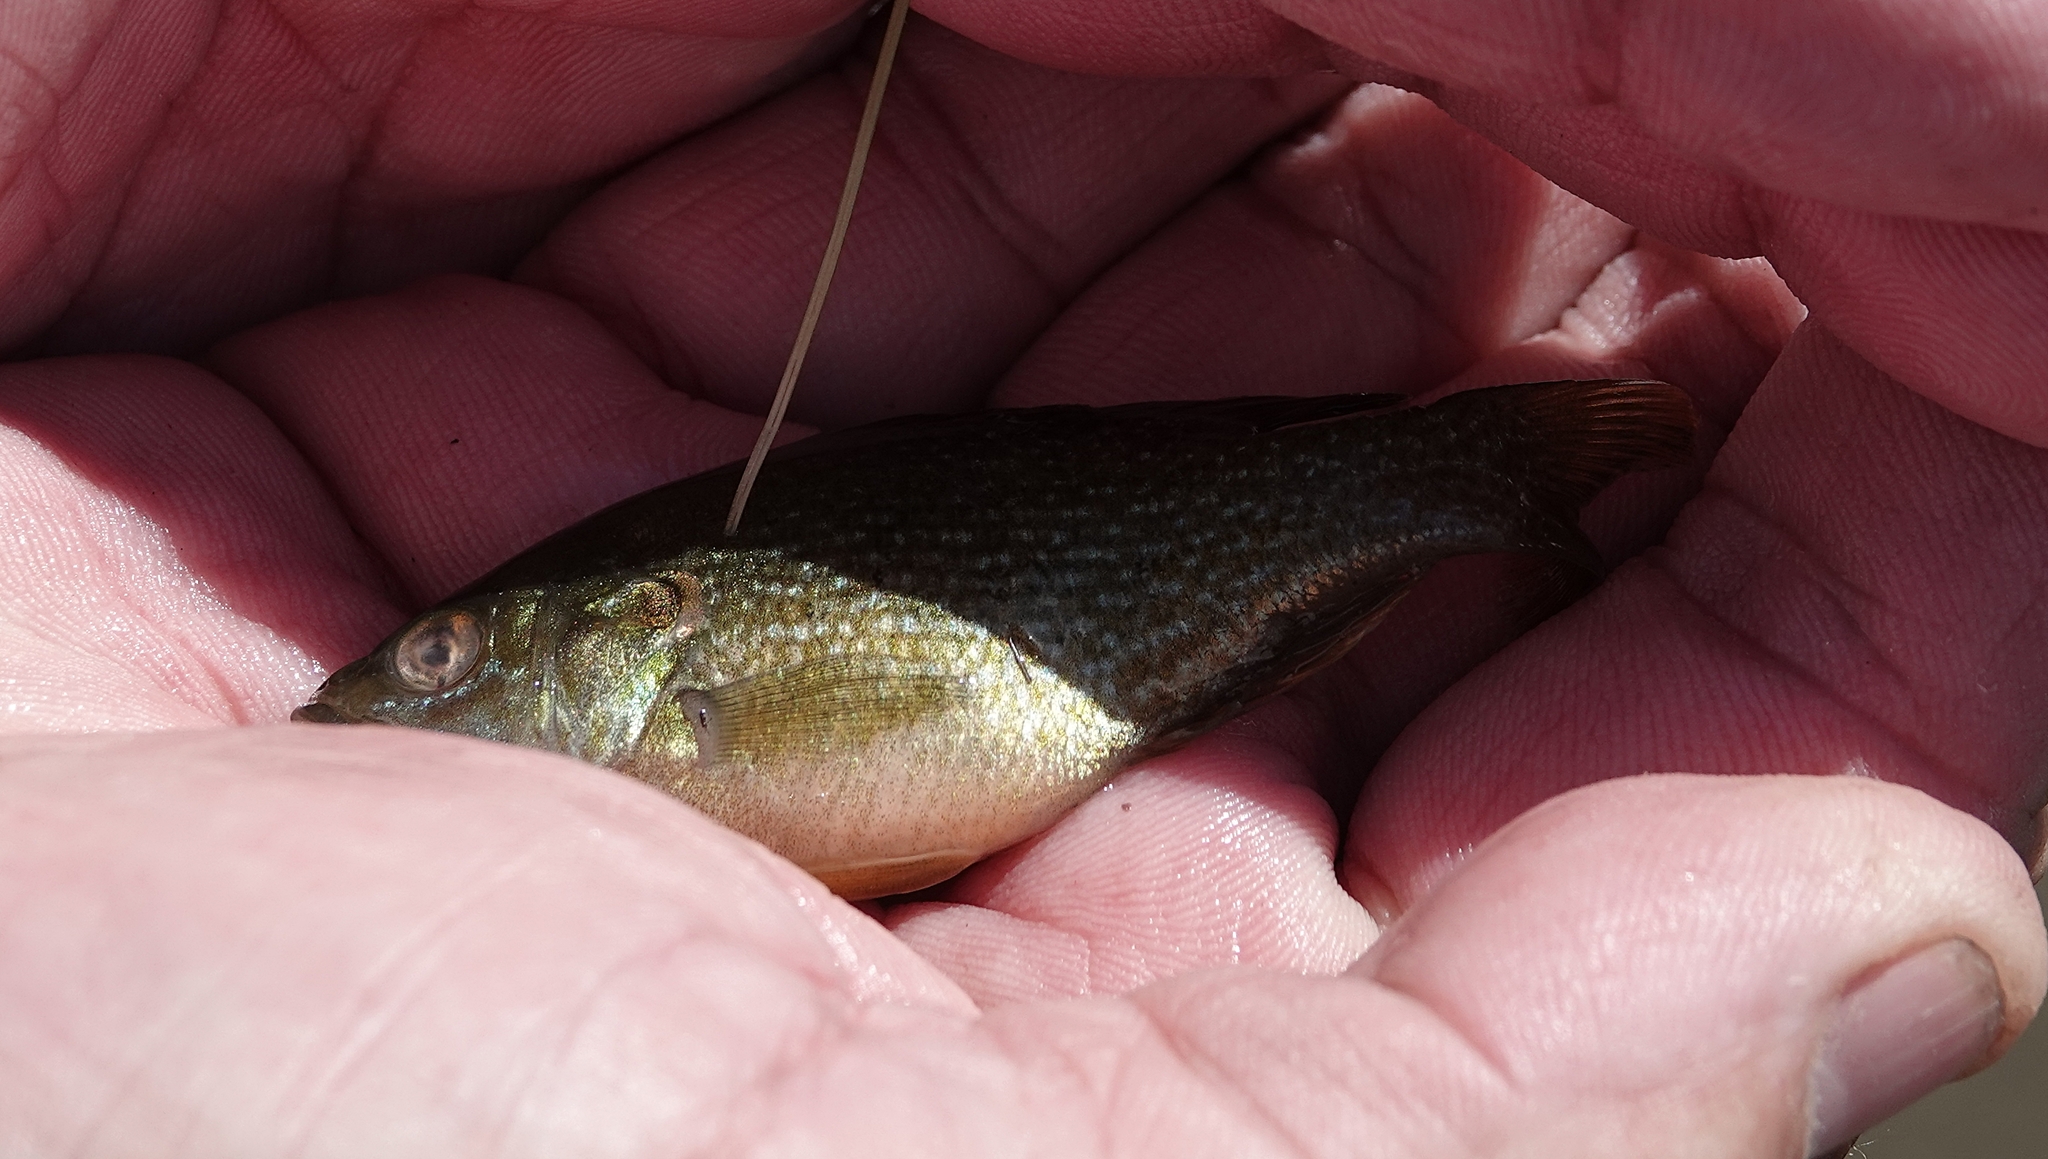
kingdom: Animalia
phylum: Chordata
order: Perciformes
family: Centrarchidae
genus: Lepomis
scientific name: Lepomis cyanellus
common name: Green sunfish
